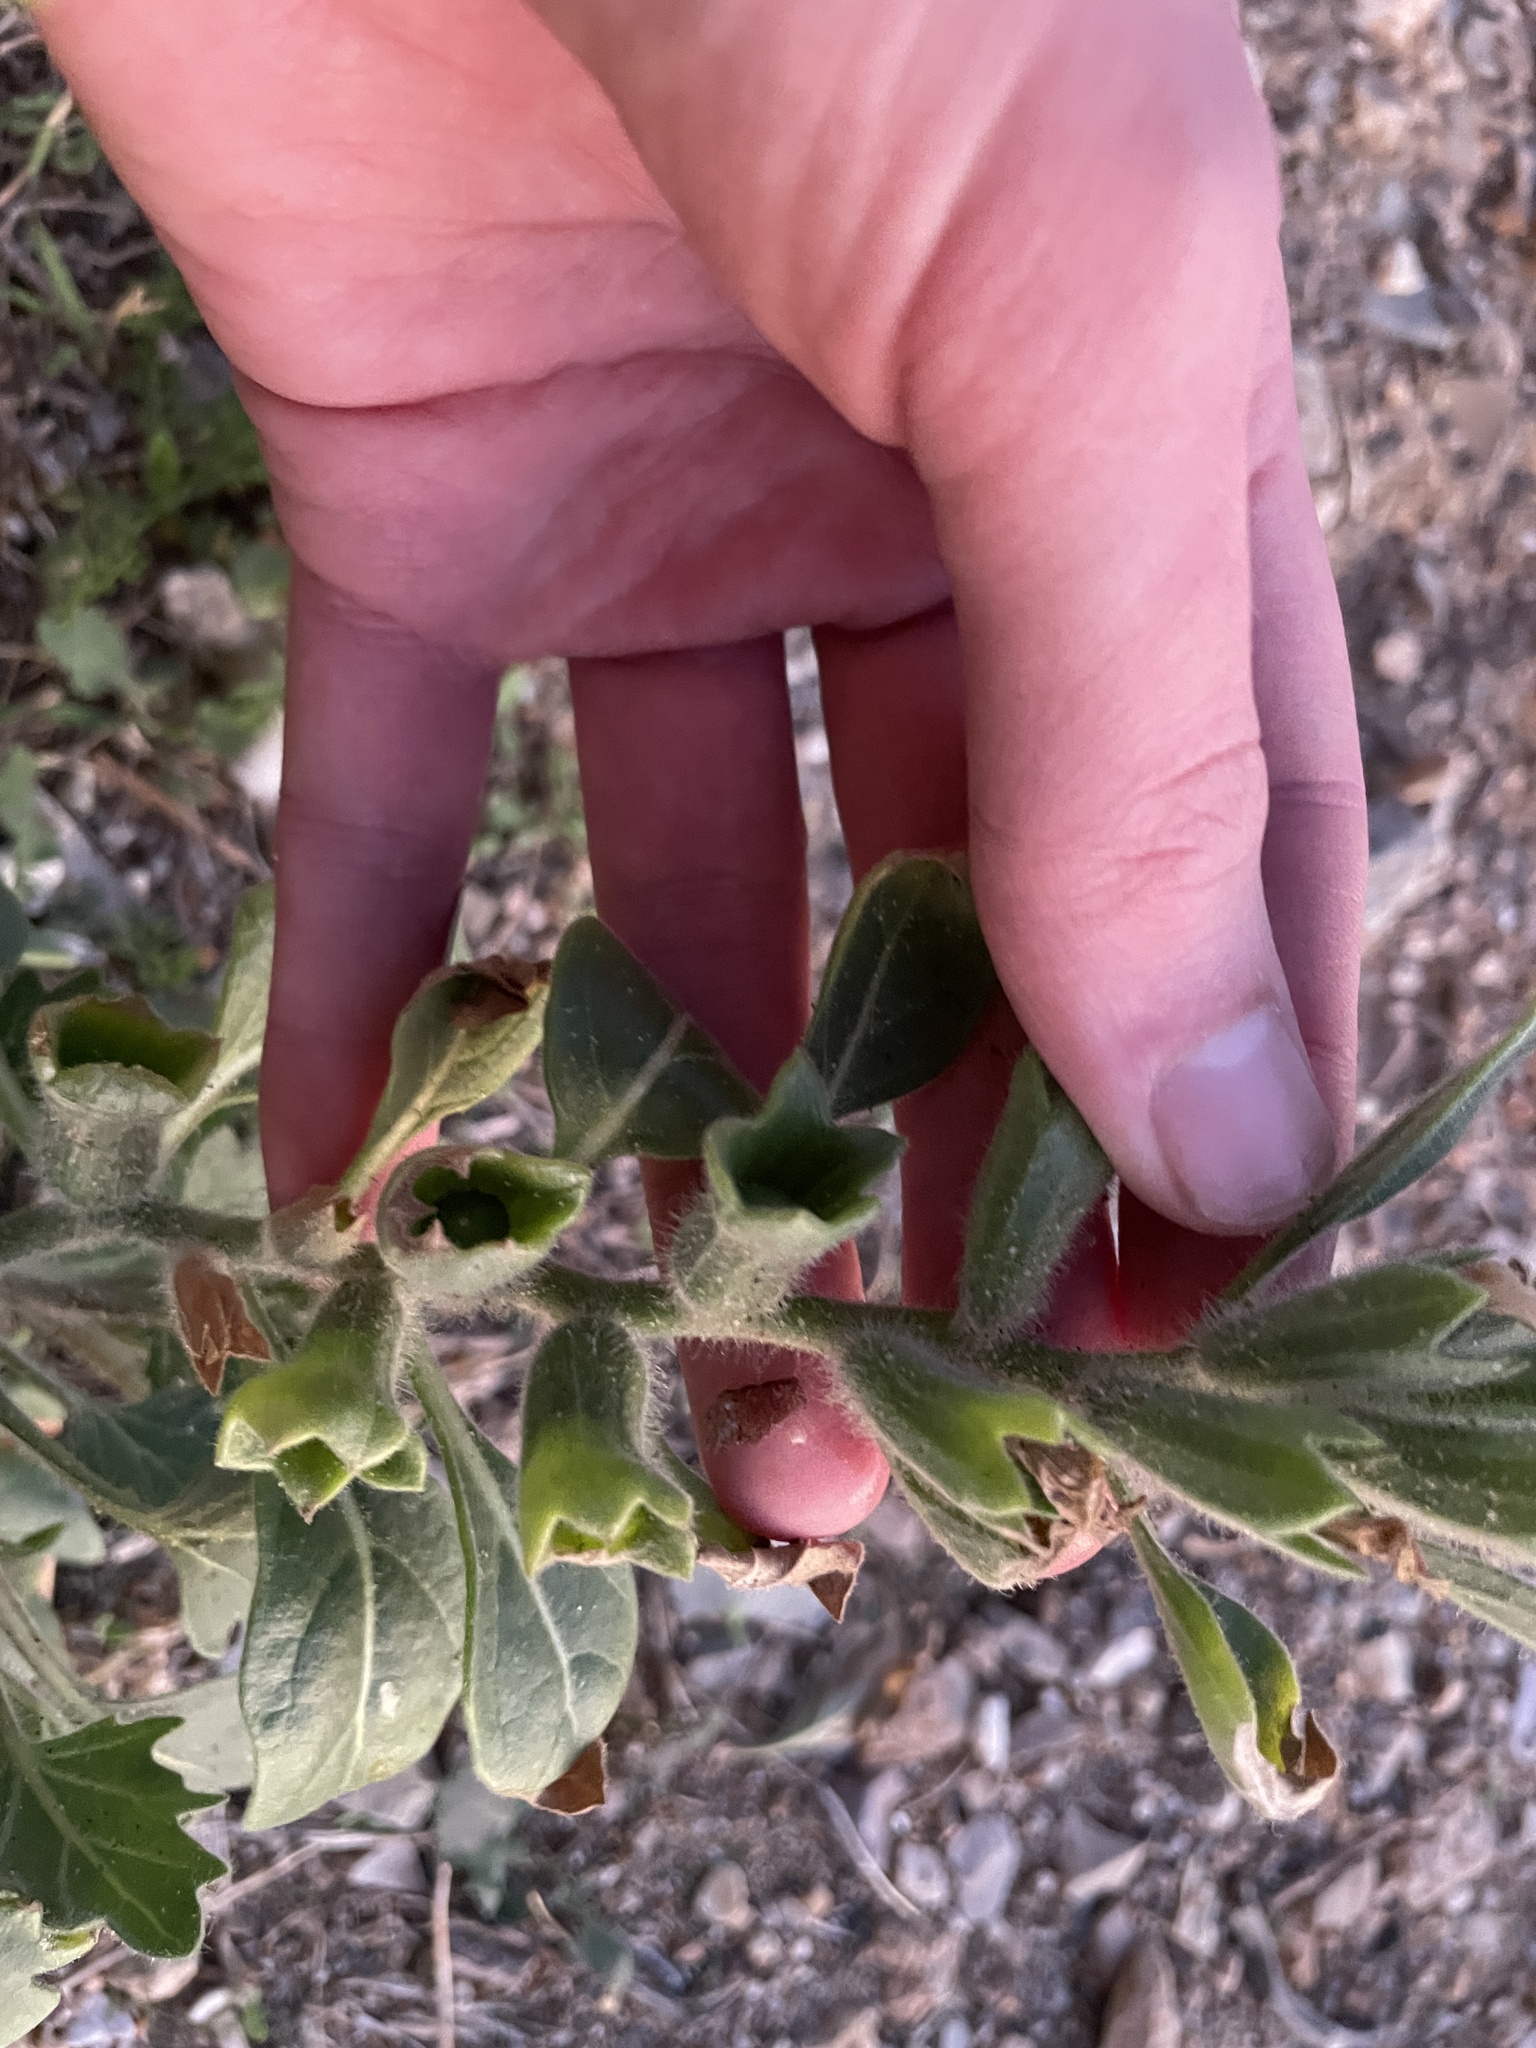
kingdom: Plantae
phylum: Tracheophyta
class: Magnoliopsida
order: Solanales
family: Solanaceae
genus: Hyoscyamus
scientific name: Hyoscyamus albus
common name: White henbane
